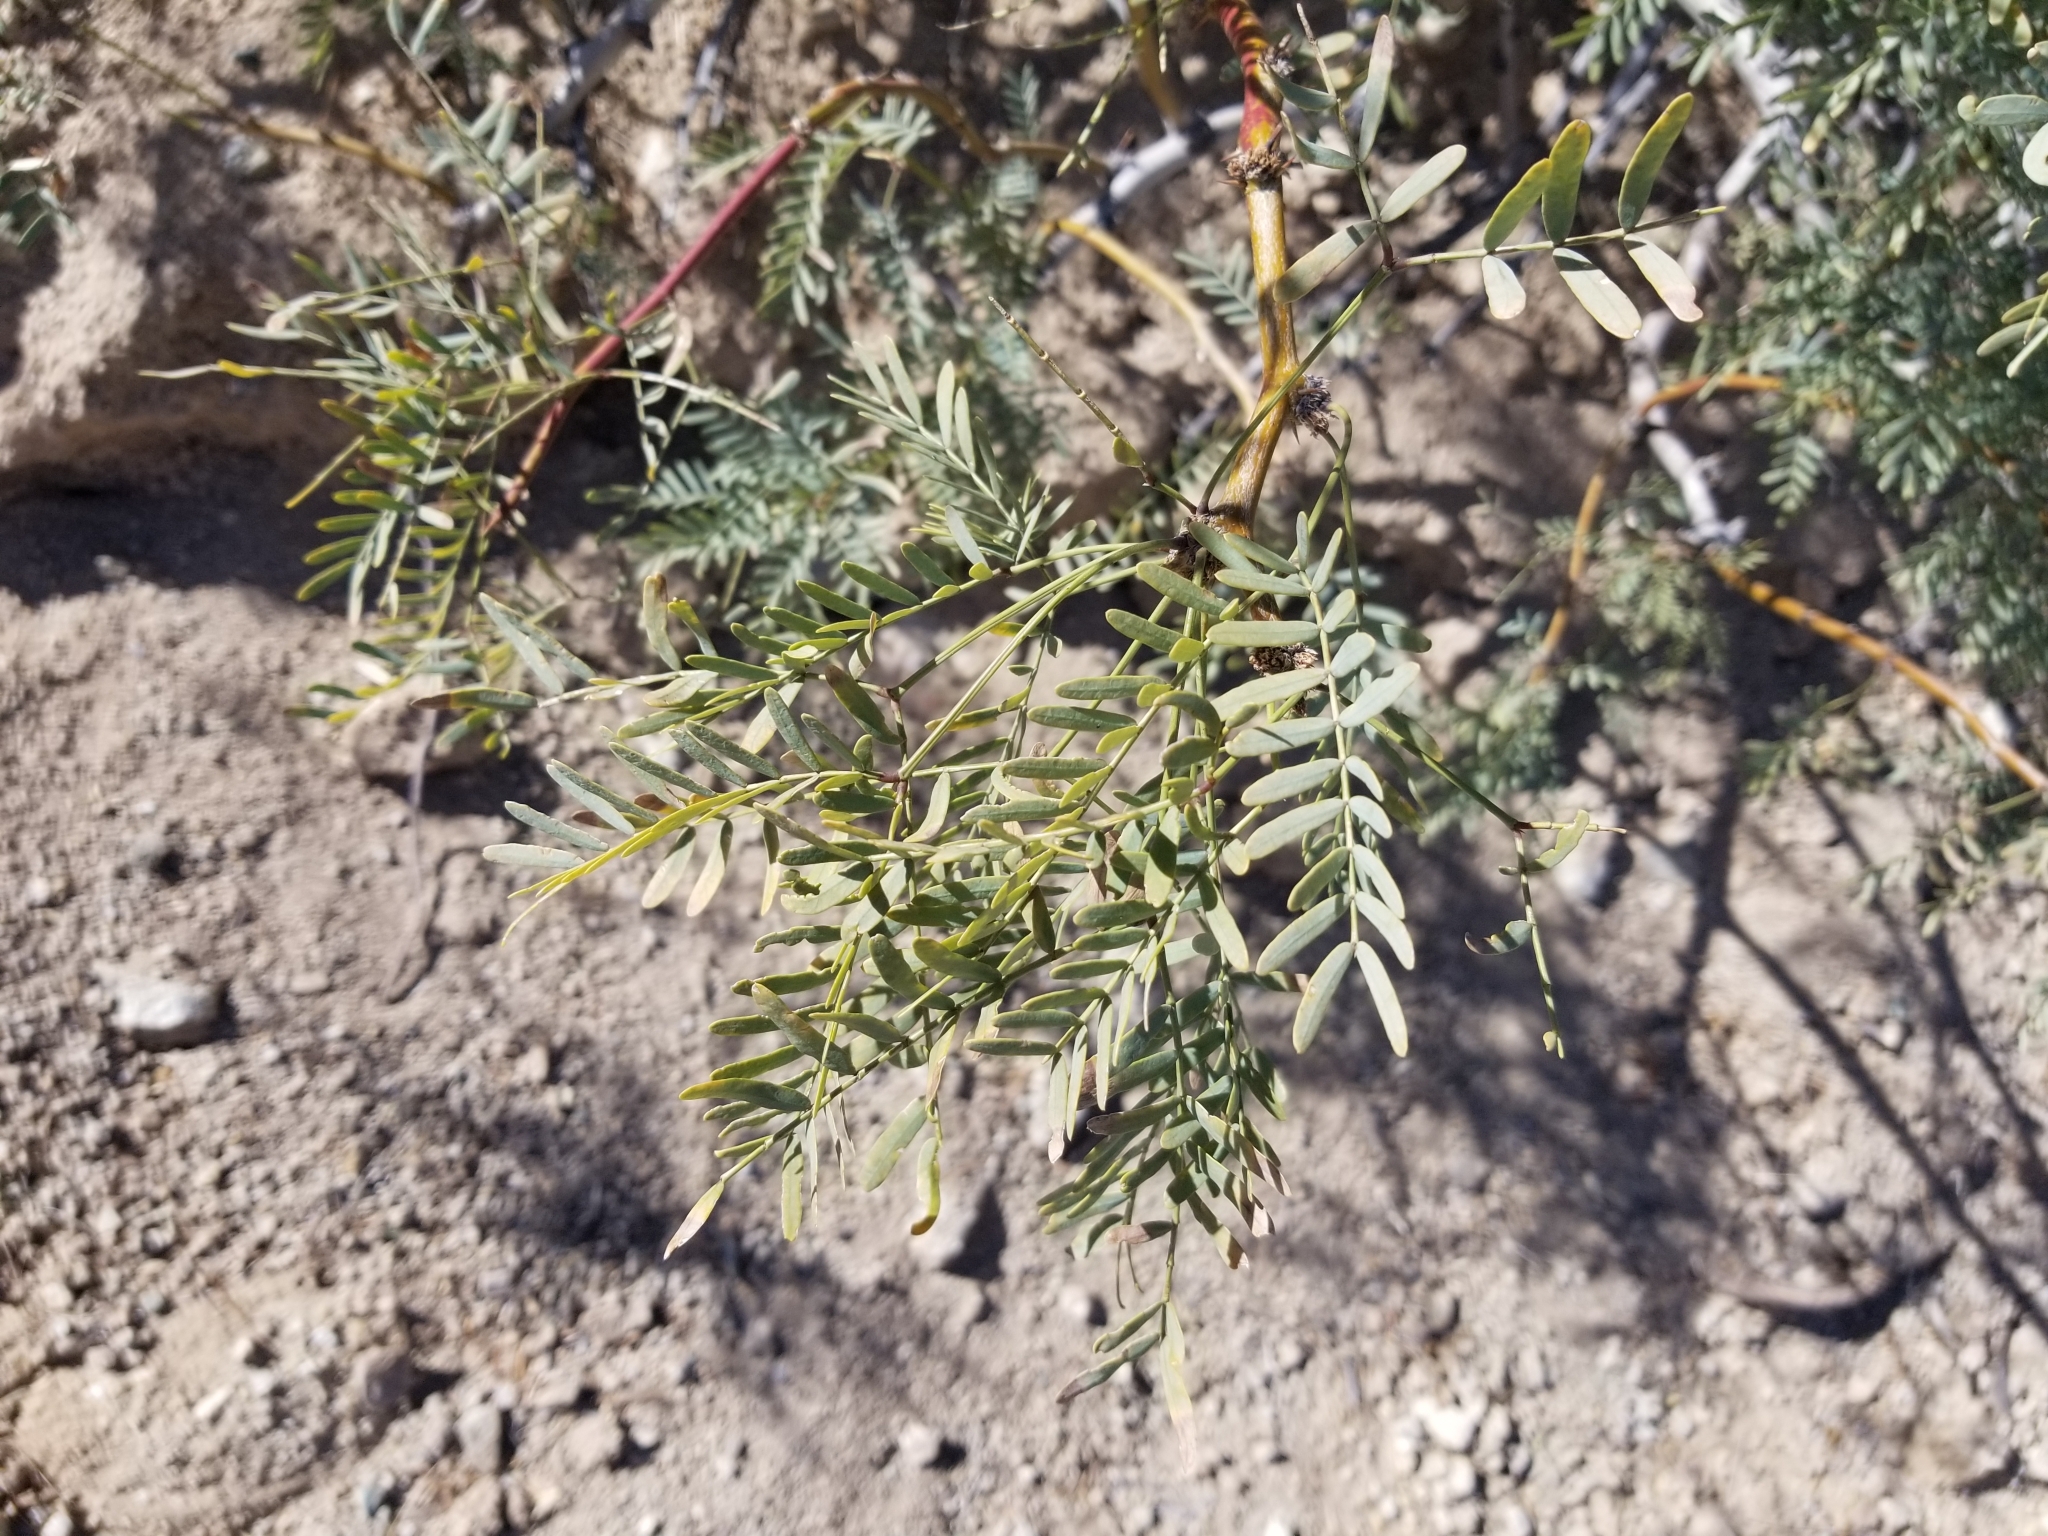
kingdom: Plantae
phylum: Tracheophyta
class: Magnoliopsida
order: Fabales
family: Fabaceae
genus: Prosopis
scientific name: Prosopis pubescens
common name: Screw-bean
